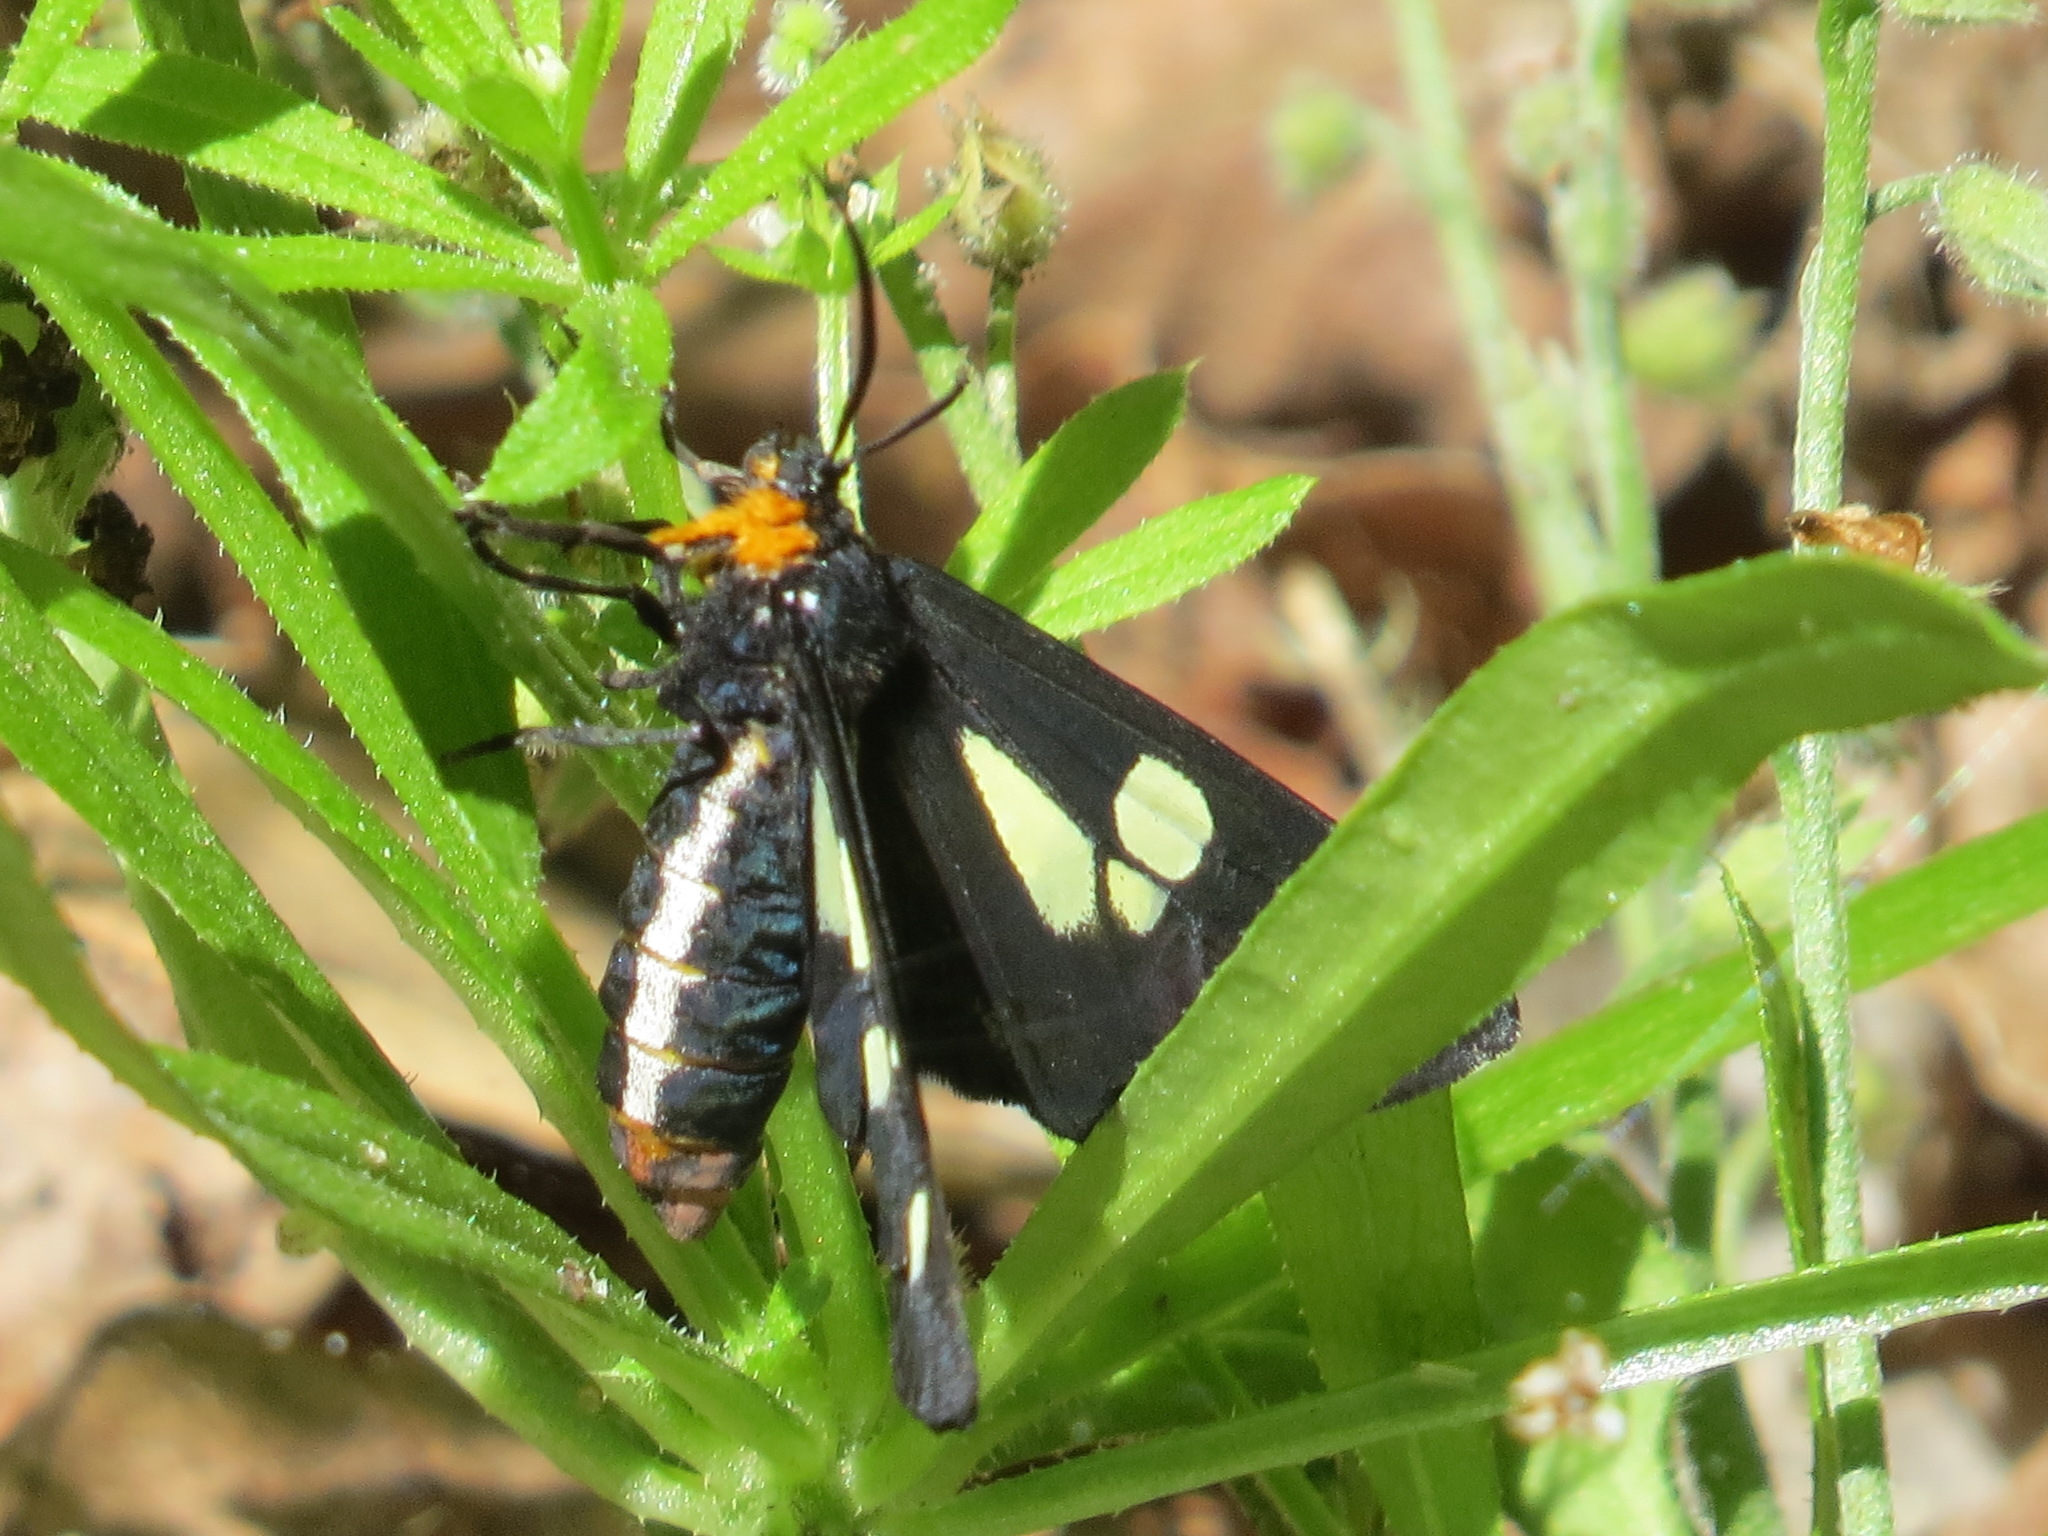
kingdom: Animalia
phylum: Arthropoda
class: Insecta
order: Lepidoptera
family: Erebidae
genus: Gnophaela
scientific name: Gnophaela latipennis
